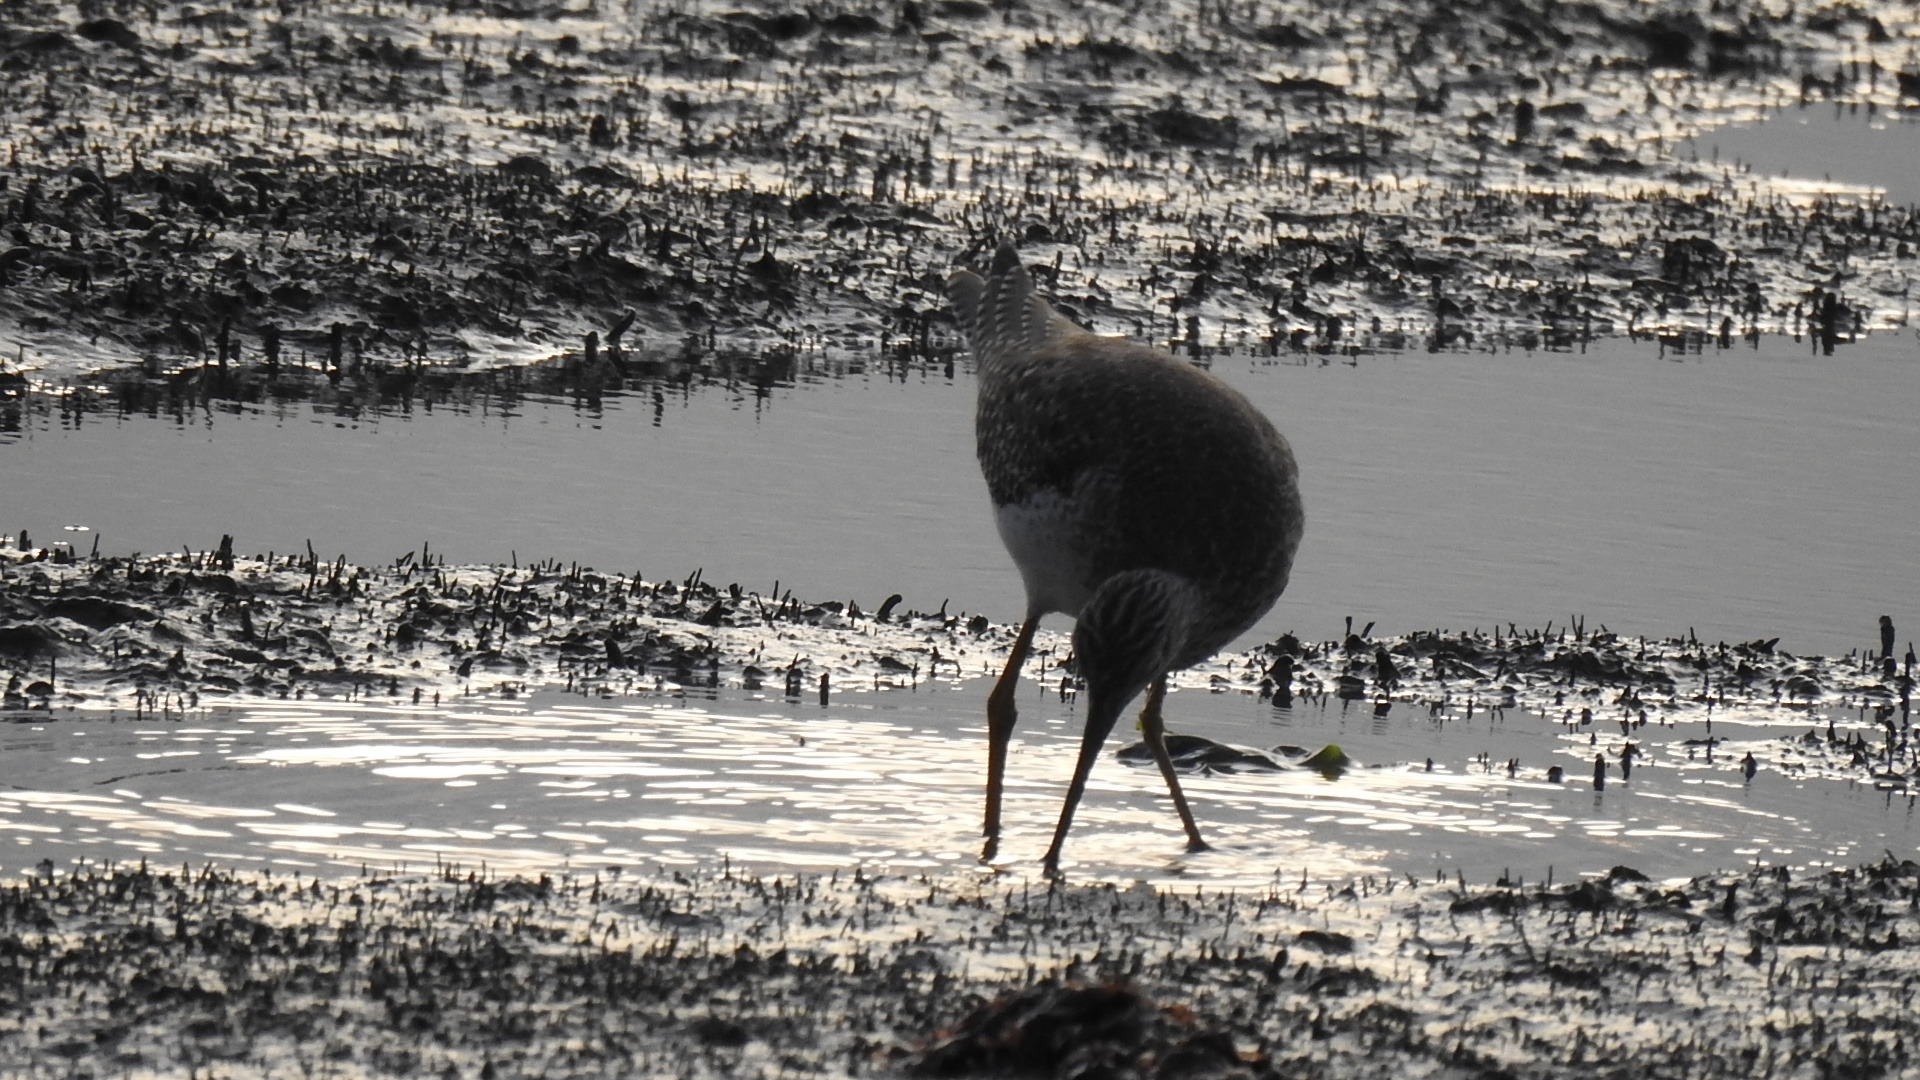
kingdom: Animalia
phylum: Chordata
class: Aves
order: Charadriiformes
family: Scolopacidae
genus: Tringa
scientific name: Tringa melanoleuca
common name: Greater yellowlegs
